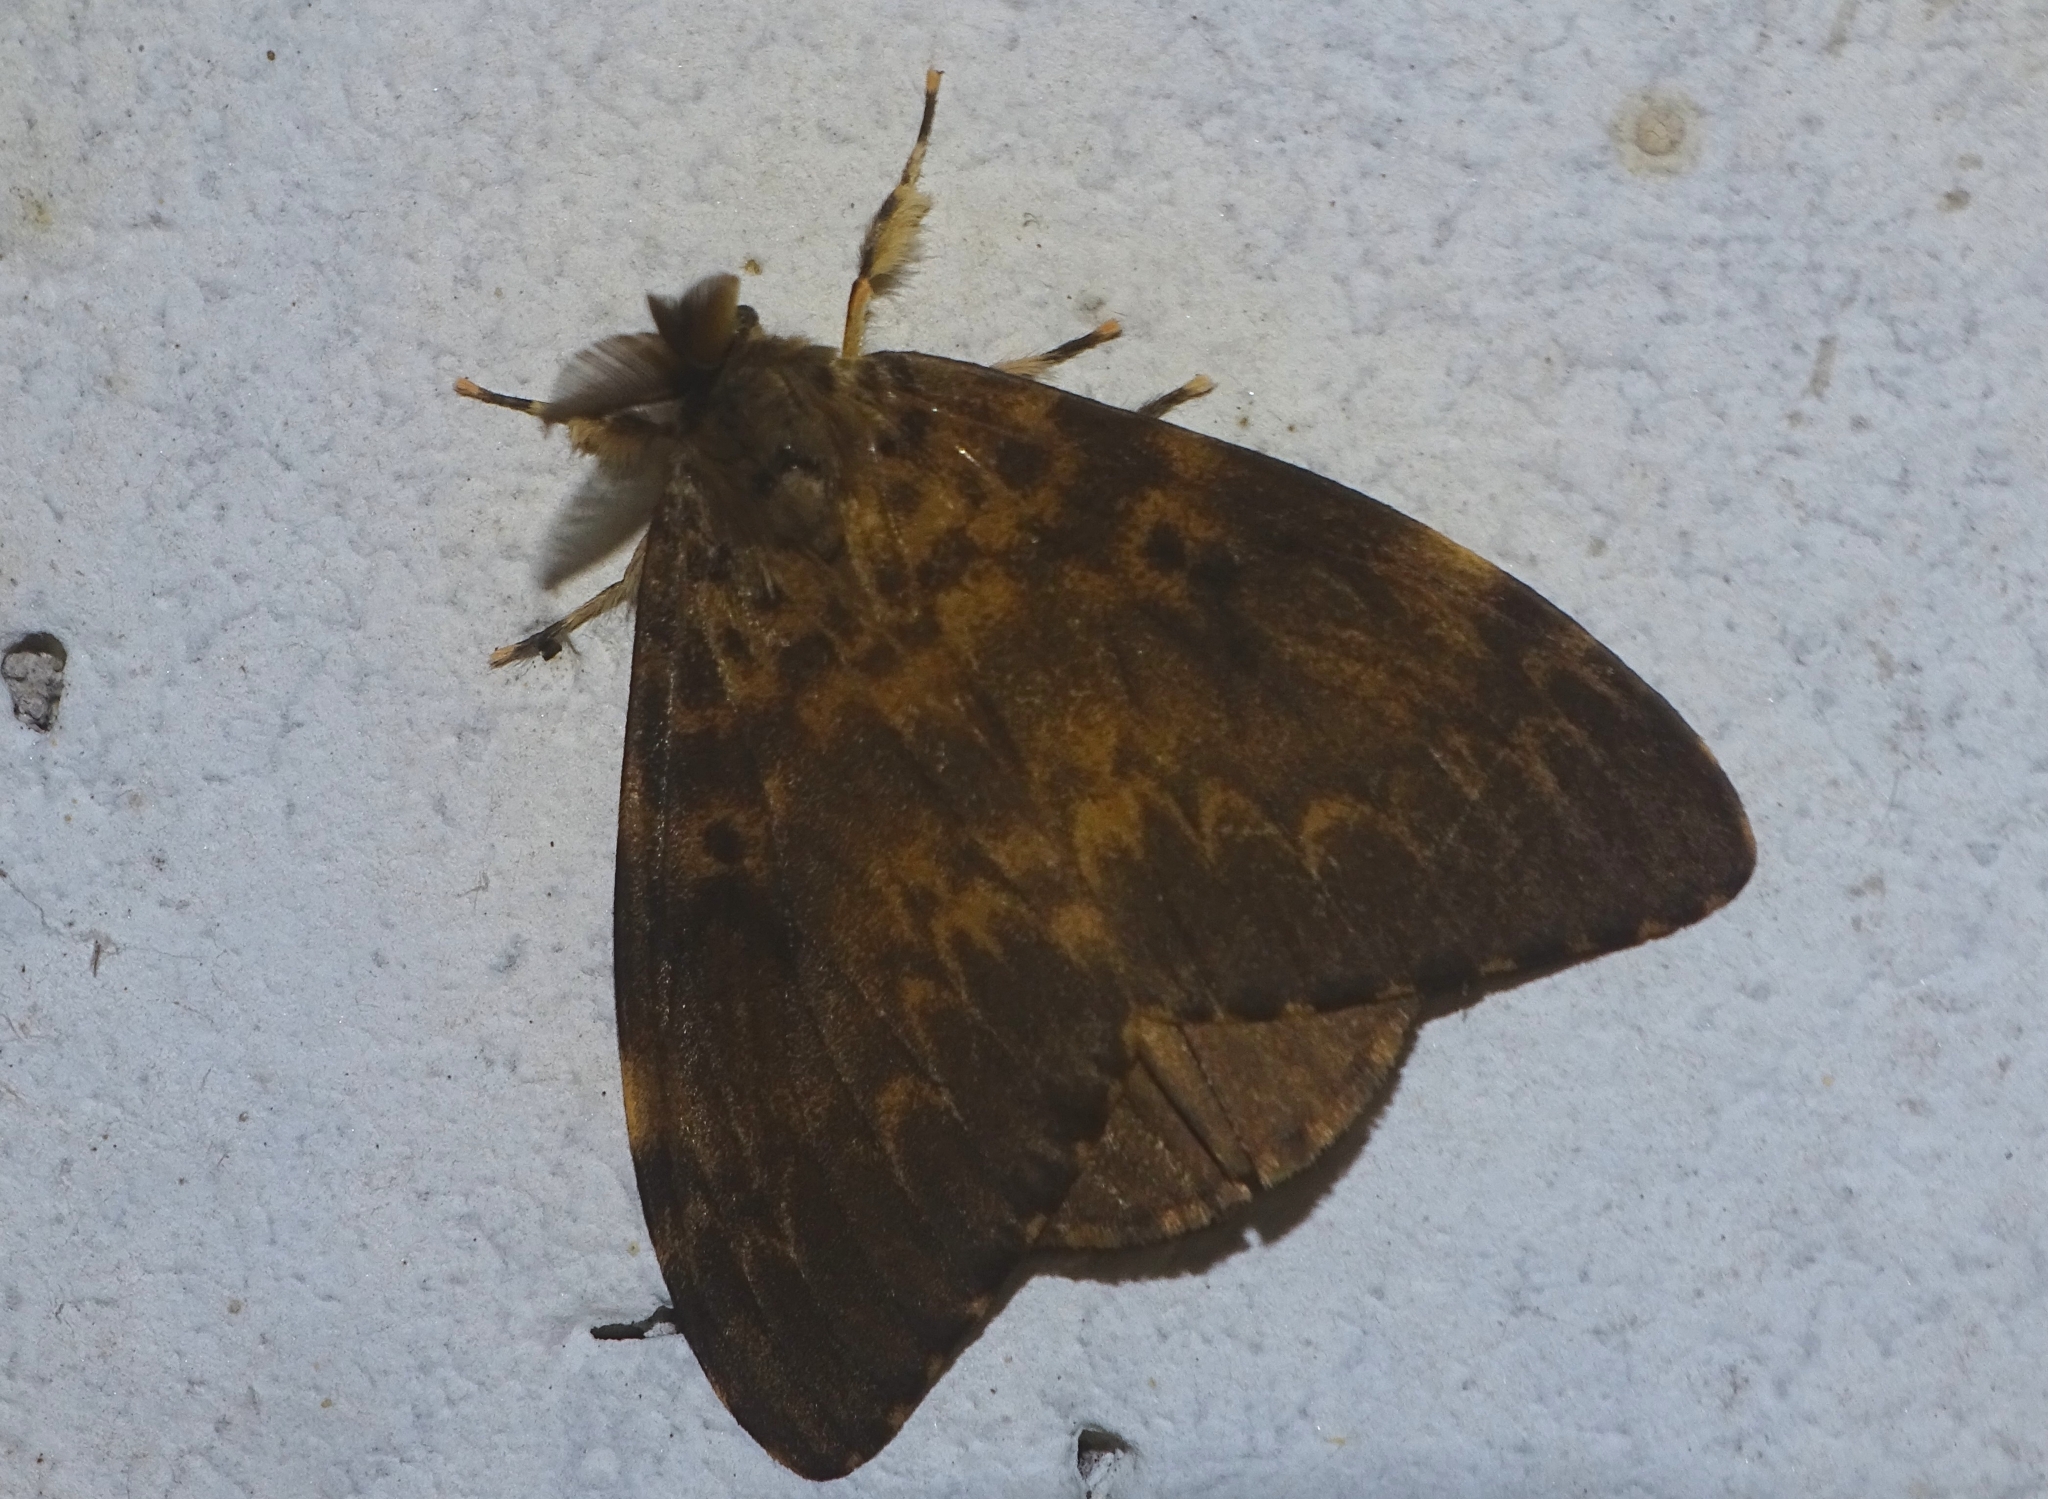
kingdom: Animalia
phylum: Arthropoda
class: Insecta
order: Lepidoptera
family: Erebidae
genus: Lymantria
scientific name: Lymantria ampla
